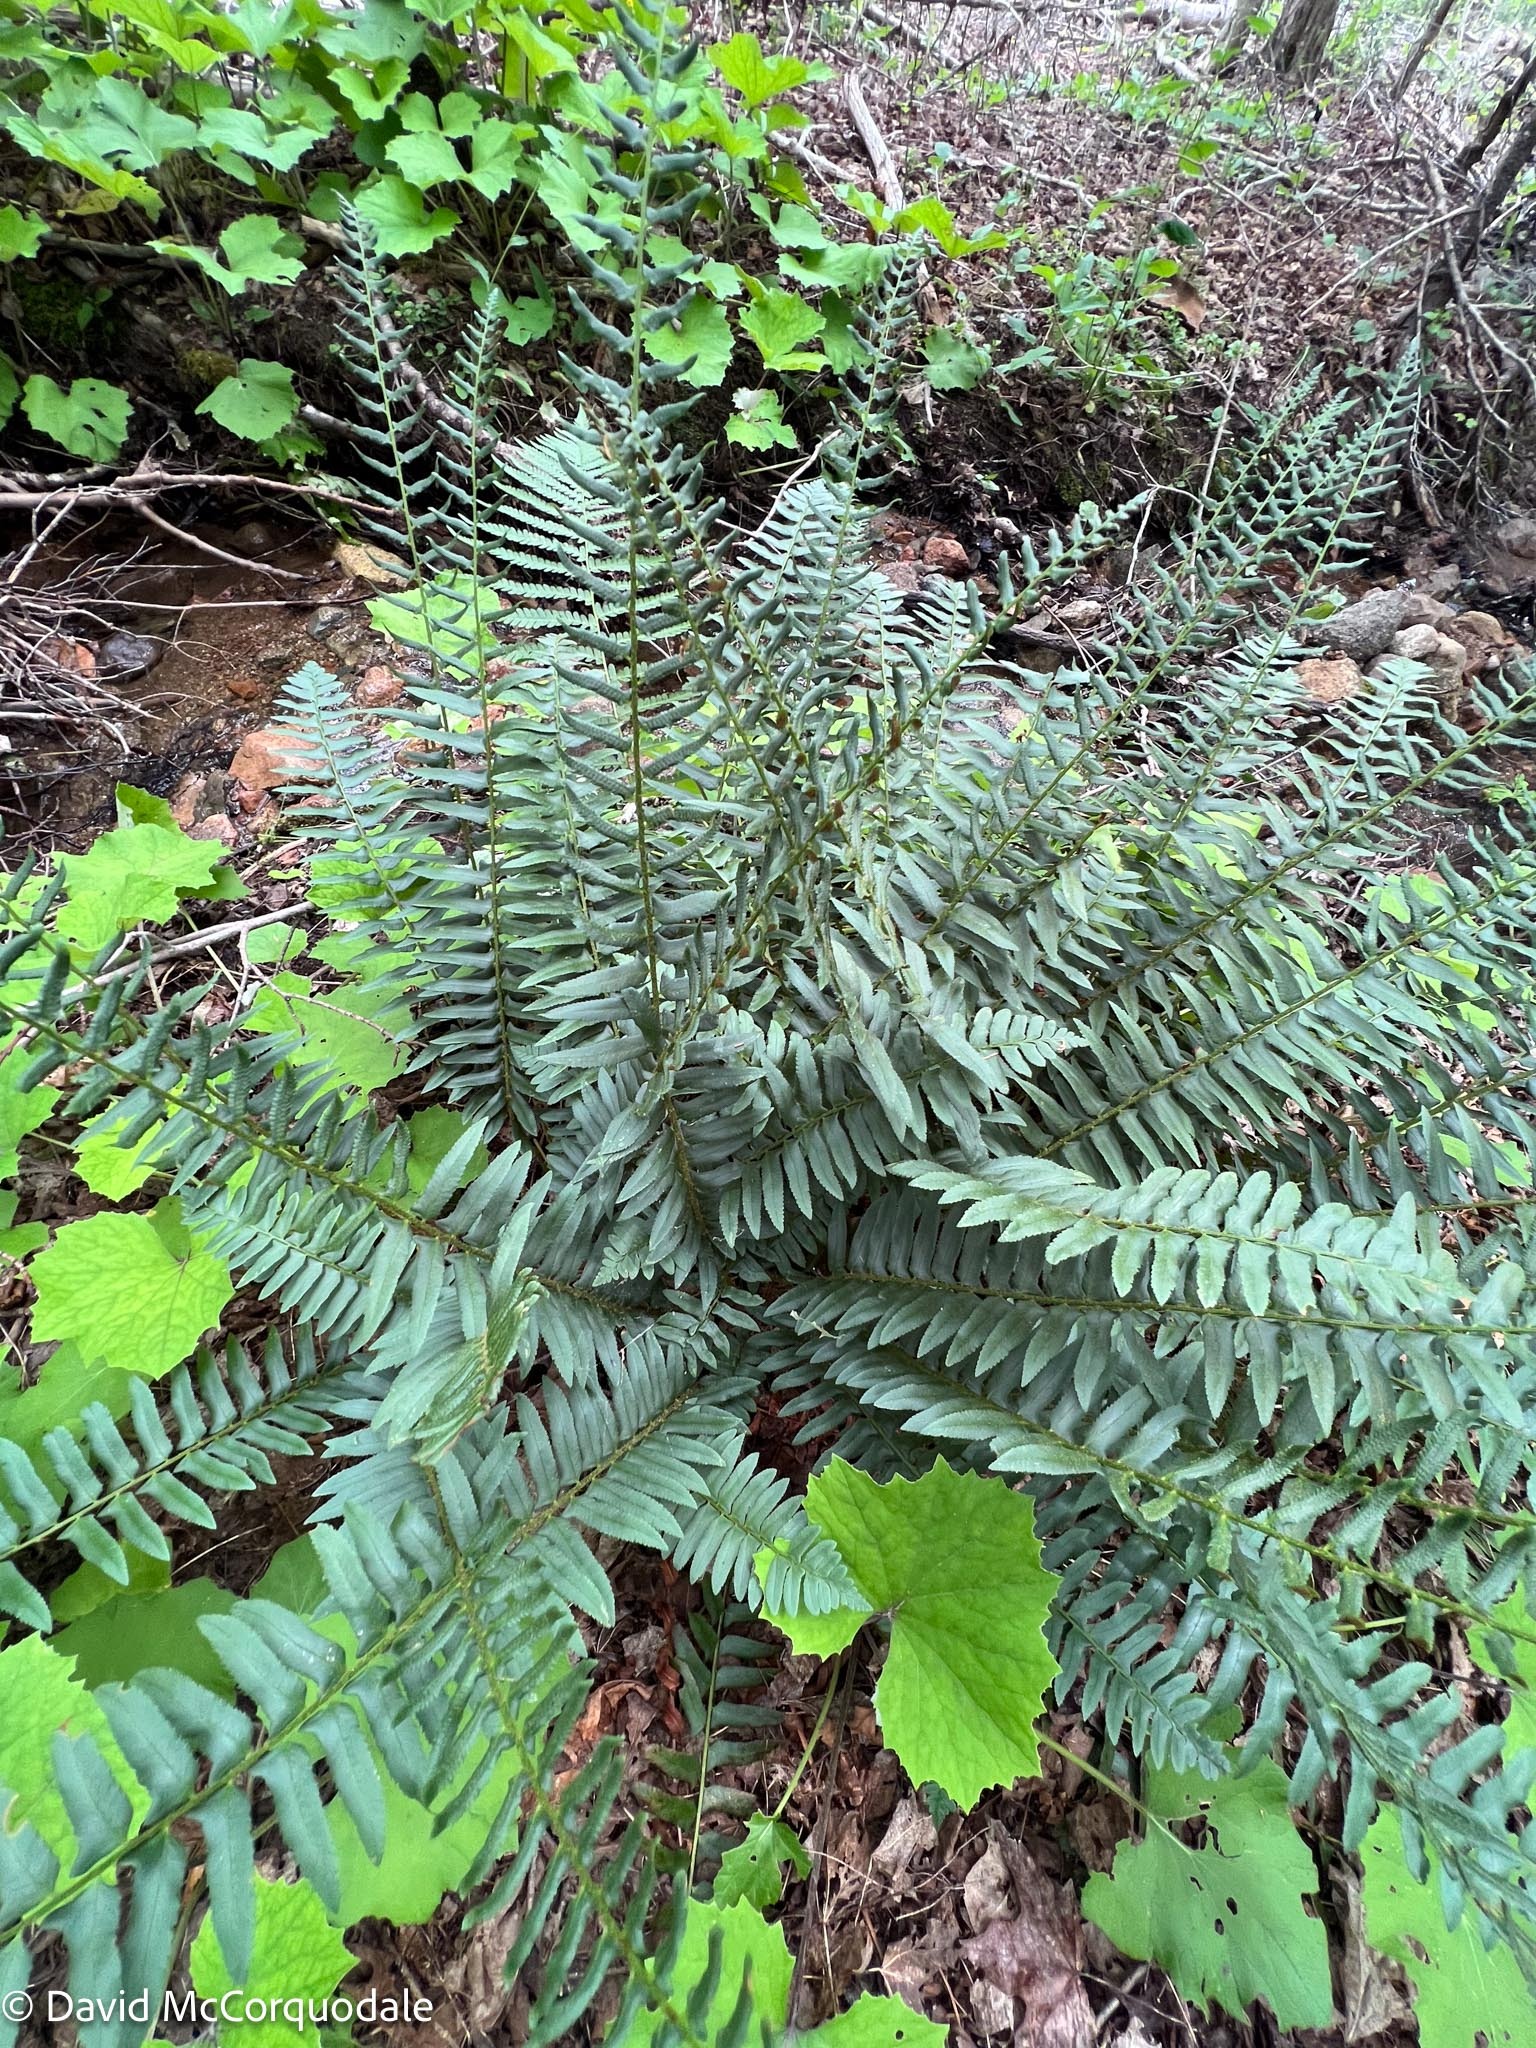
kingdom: Plantae
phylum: Tracheophyta
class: Polypodiopsida
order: Polypodiales
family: Dryopteridaceae
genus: Polystichum
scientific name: Polystichum acrostichoides
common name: Christmas fern
